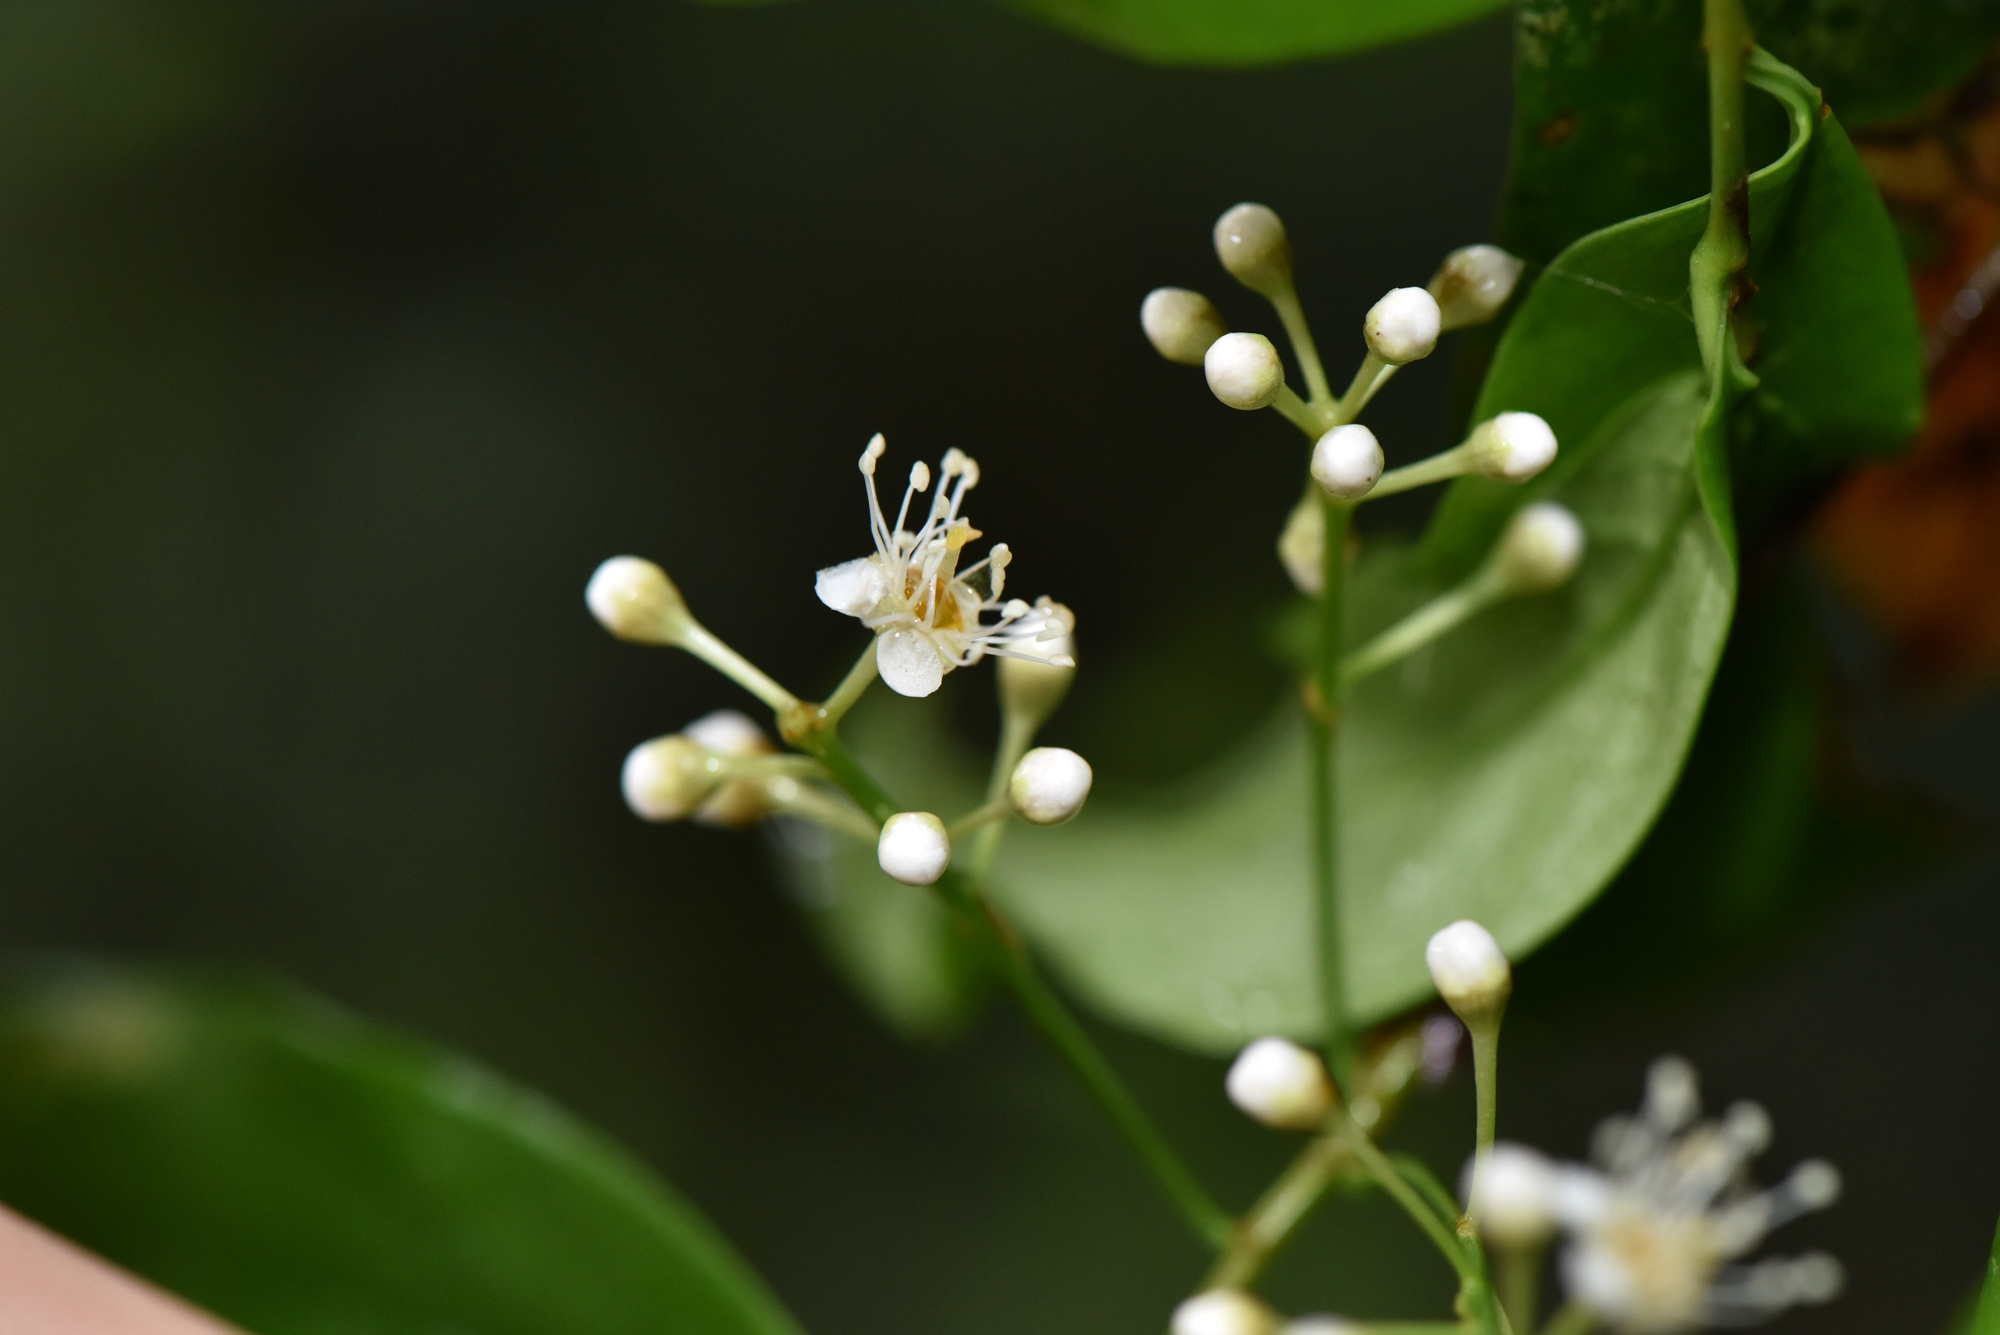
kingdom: Plantae
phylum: Tracheophyta
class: Magnoliopsida
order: Rosales
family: Rosaceae
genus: Prunus
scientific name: Prunus phaeosticta
